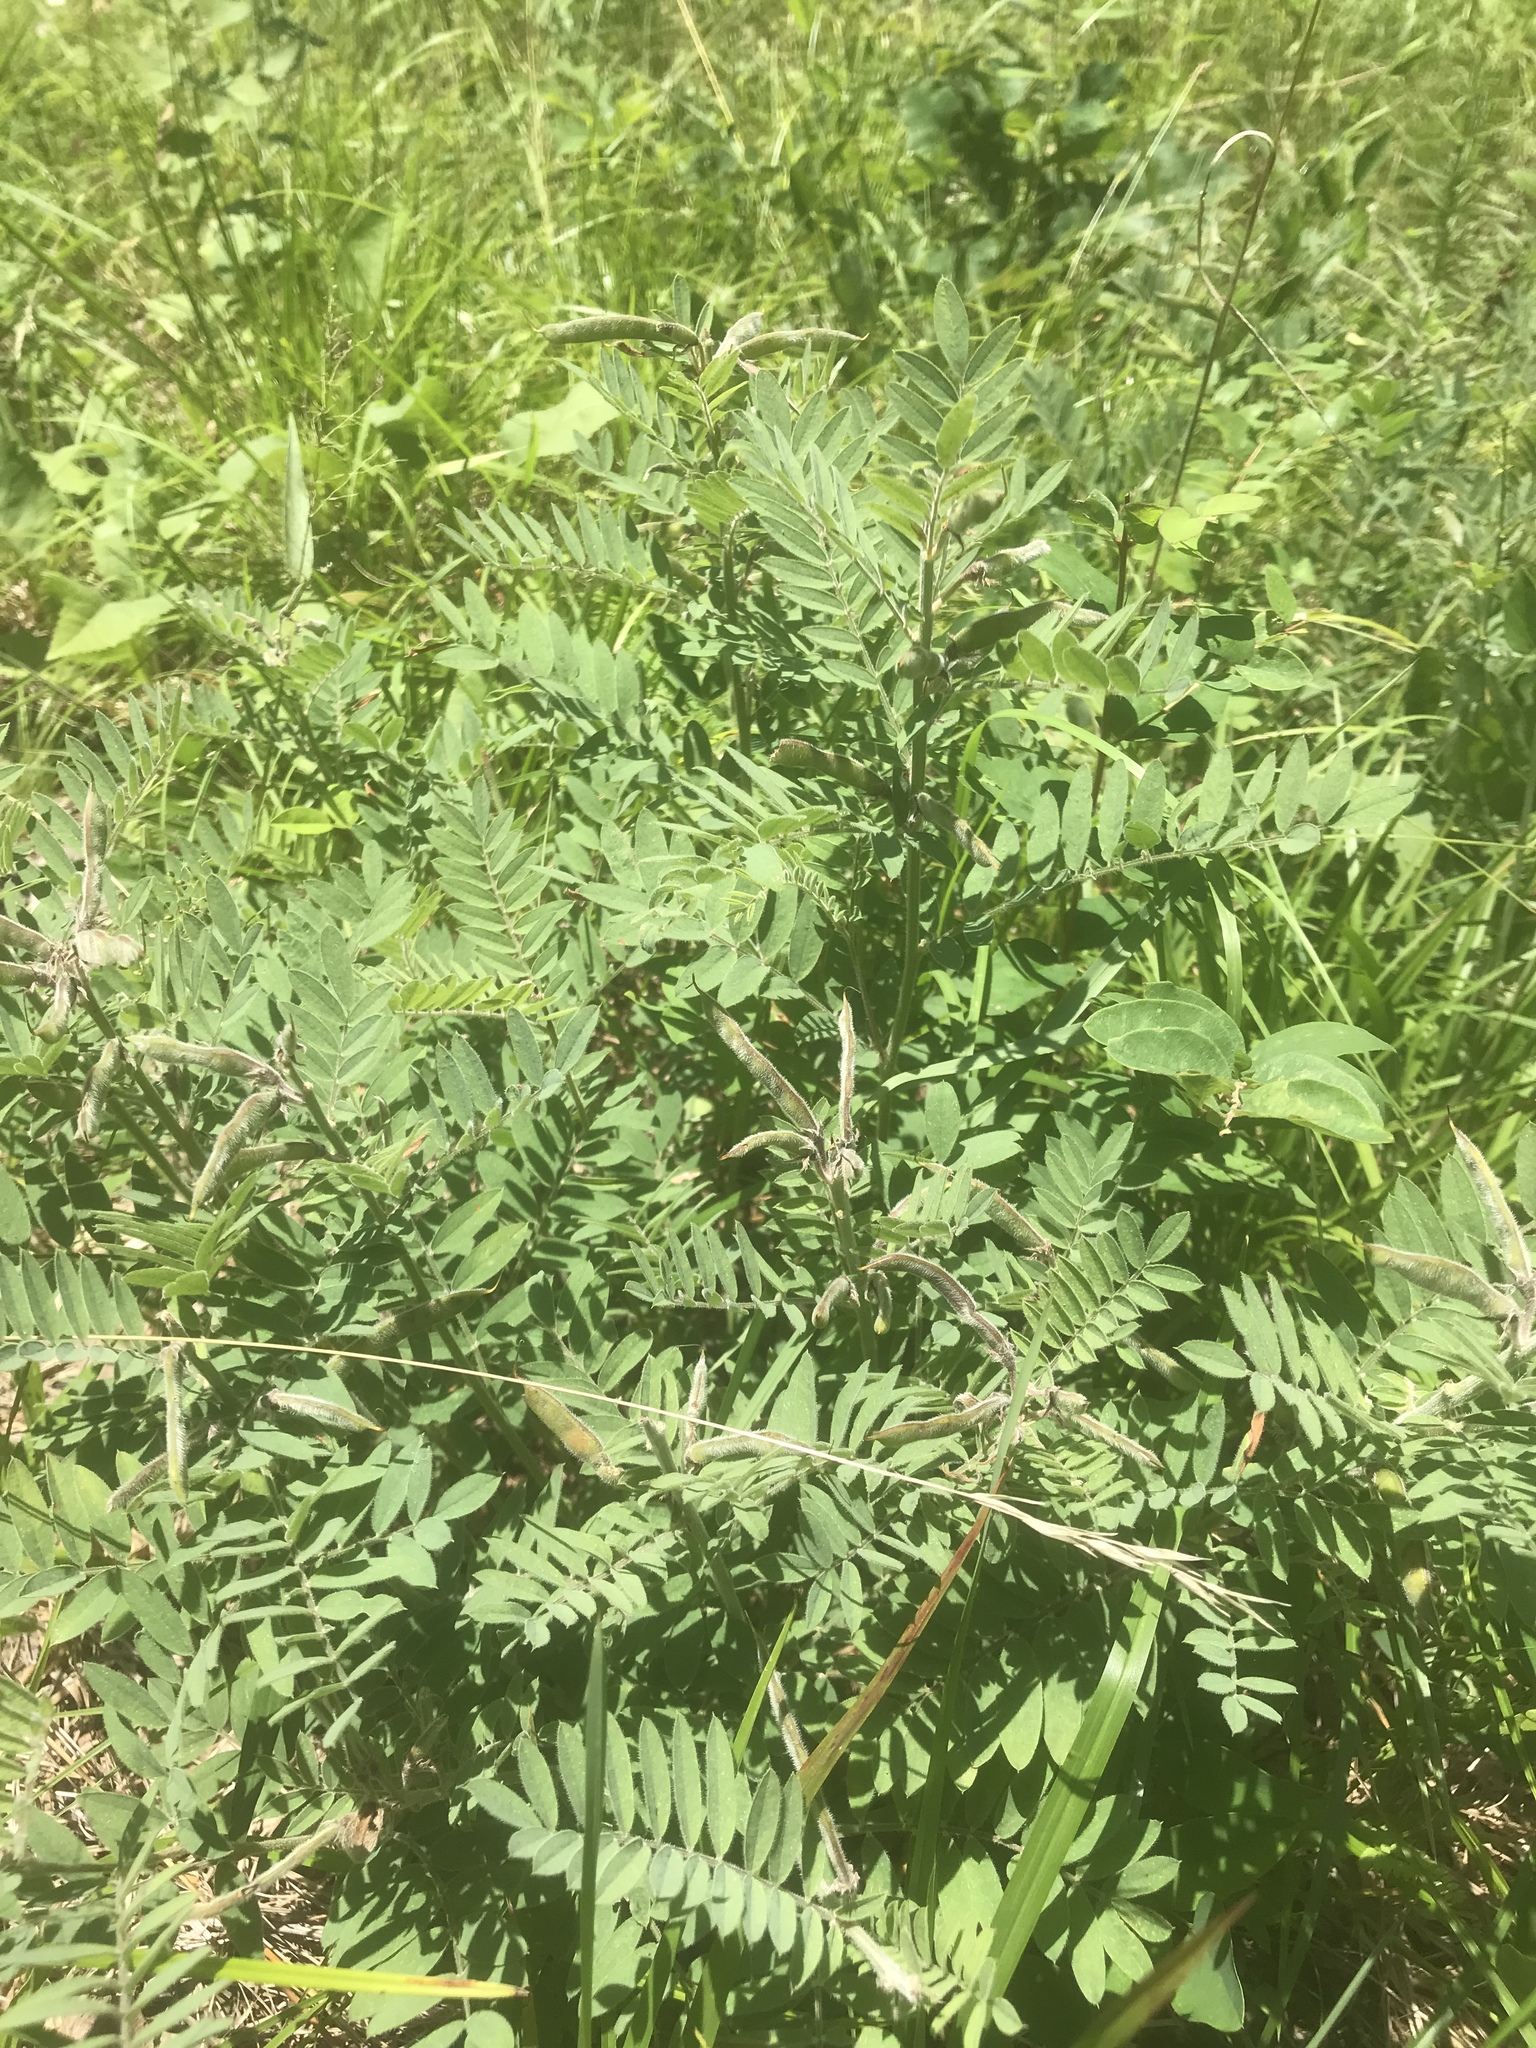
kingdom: Plantae
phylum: Tracheophyta
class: Magnoliopsida
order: Fabales
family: Fabaceae
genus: Tephrosia
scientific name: Tephrosia virginiana
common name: Rabbit-pea
